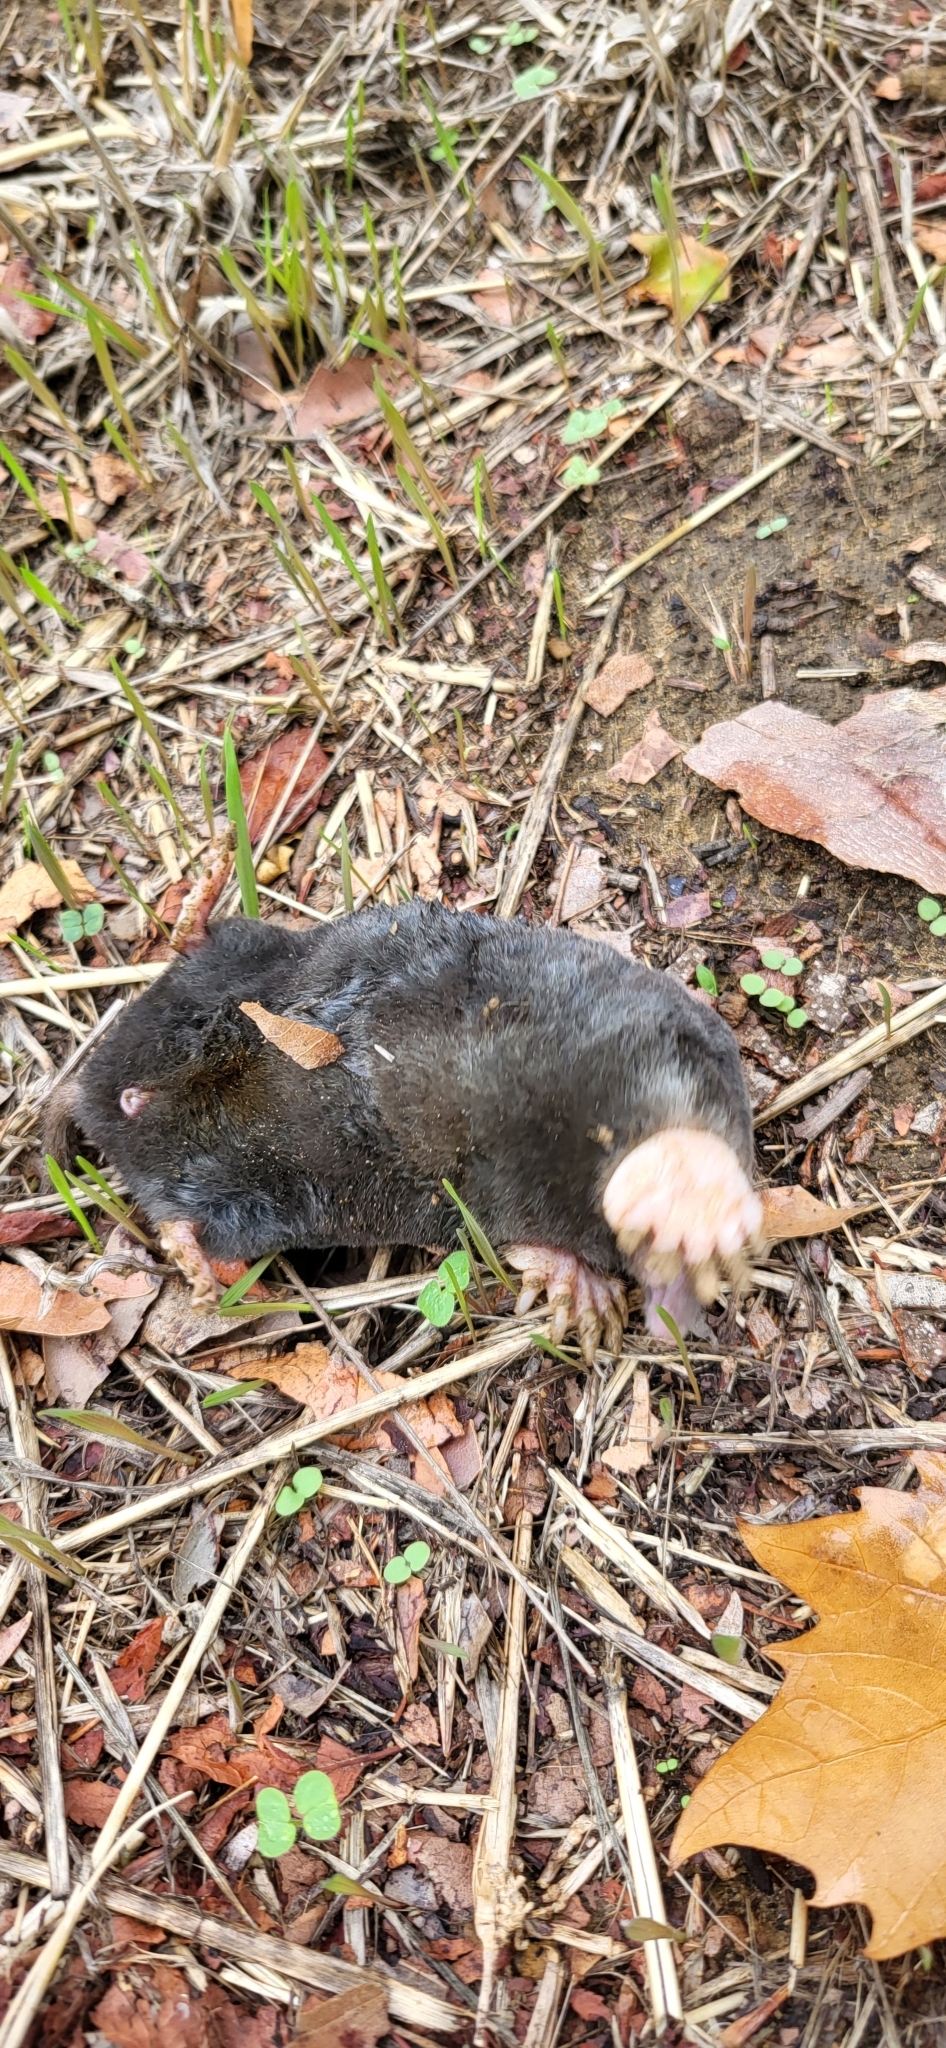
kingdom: Animalia
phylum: Chordata
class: Mammalia
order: Soricomorpha
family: Talpidae
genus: Talpa
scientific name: Talpa occidentalis
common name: Iberian mole
